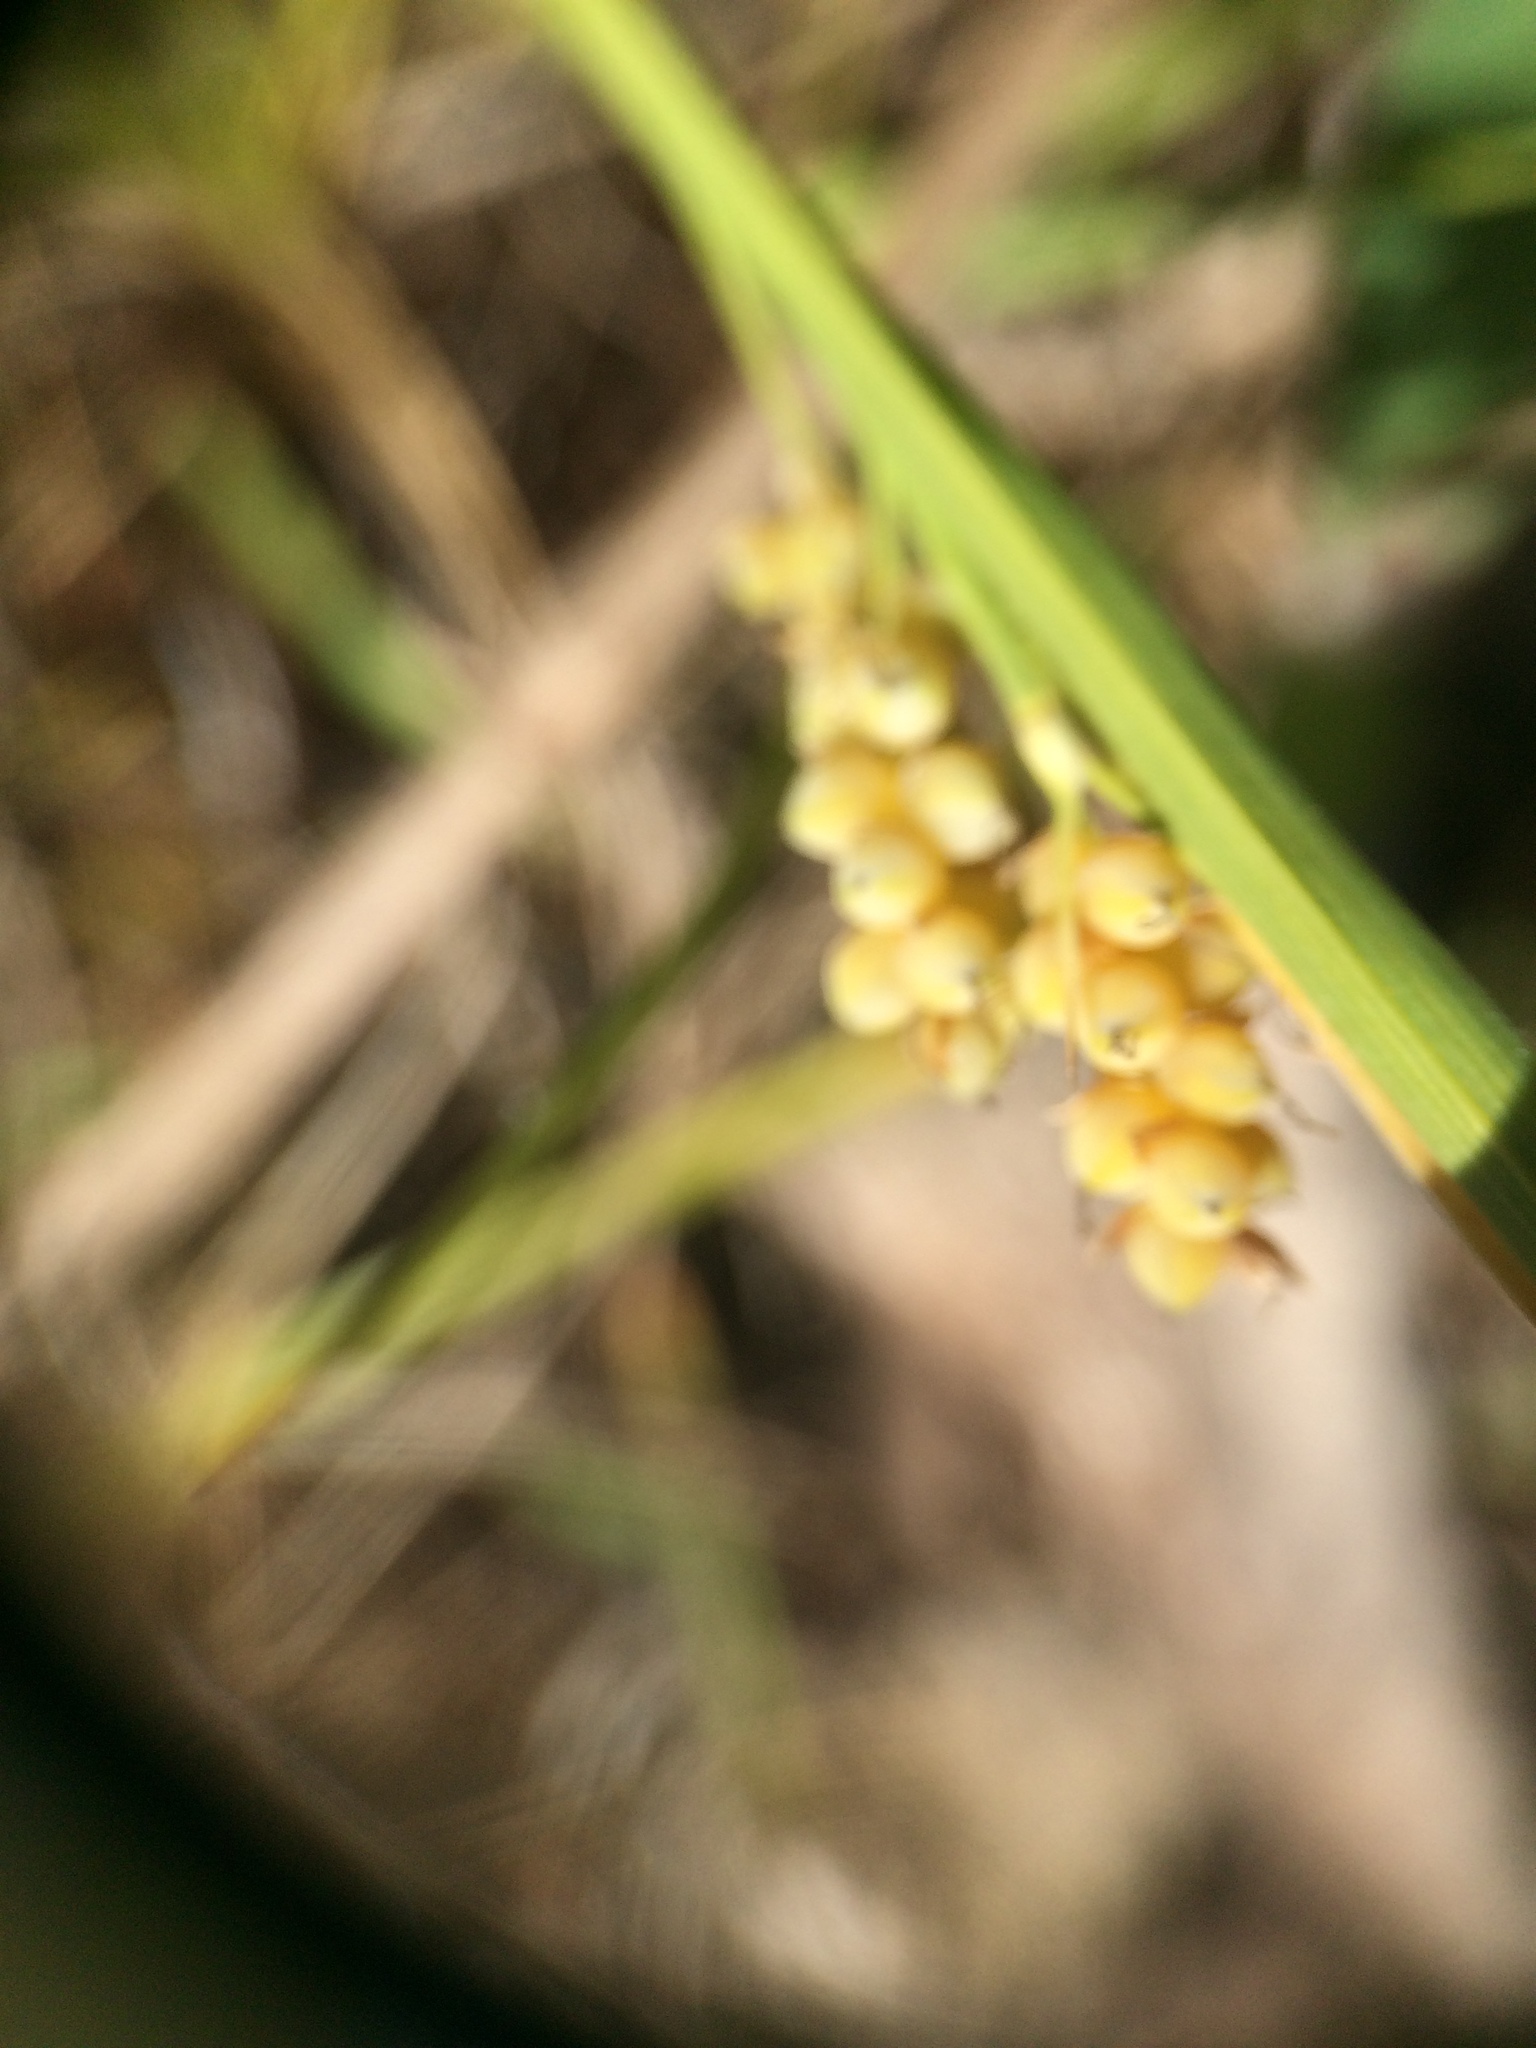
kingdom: Plantae
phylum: Tracheophyta
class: Liliopsida
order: Poales
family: Cyperaceae
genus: Carex
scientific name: Carex aurea
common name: Golden sedge
